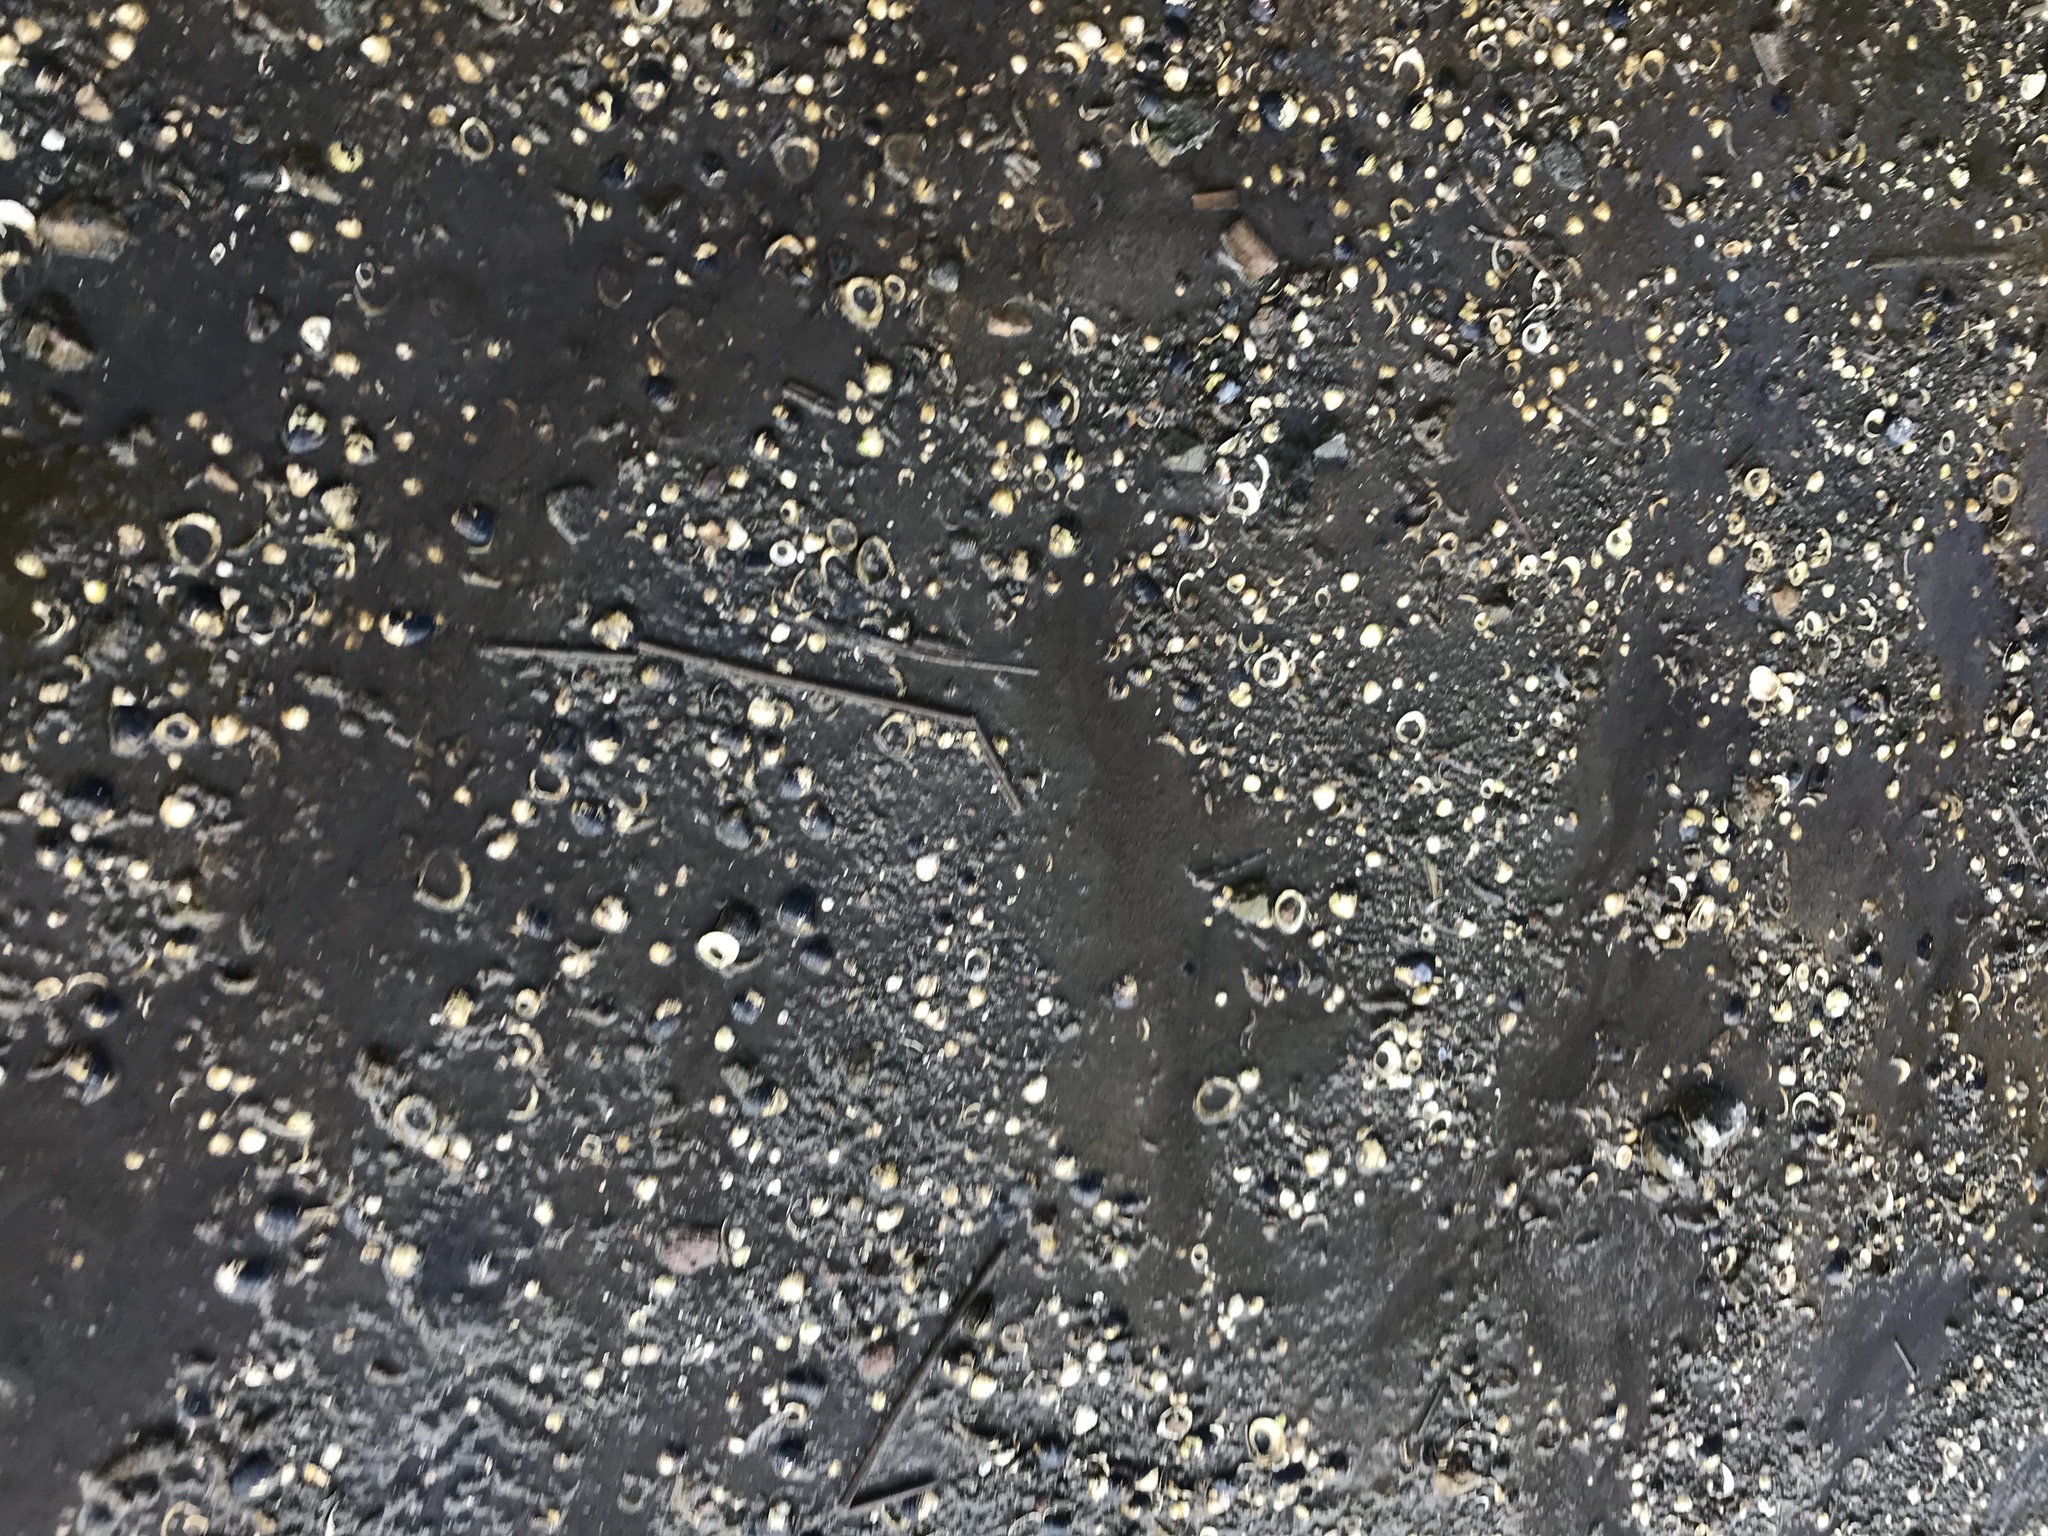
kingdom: Animalia
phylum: Mollusca
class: Bivalvia
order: Venerida
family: Cyrenidae
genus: Corbicula
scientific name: Corbicula fluminea
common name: Asian clam
